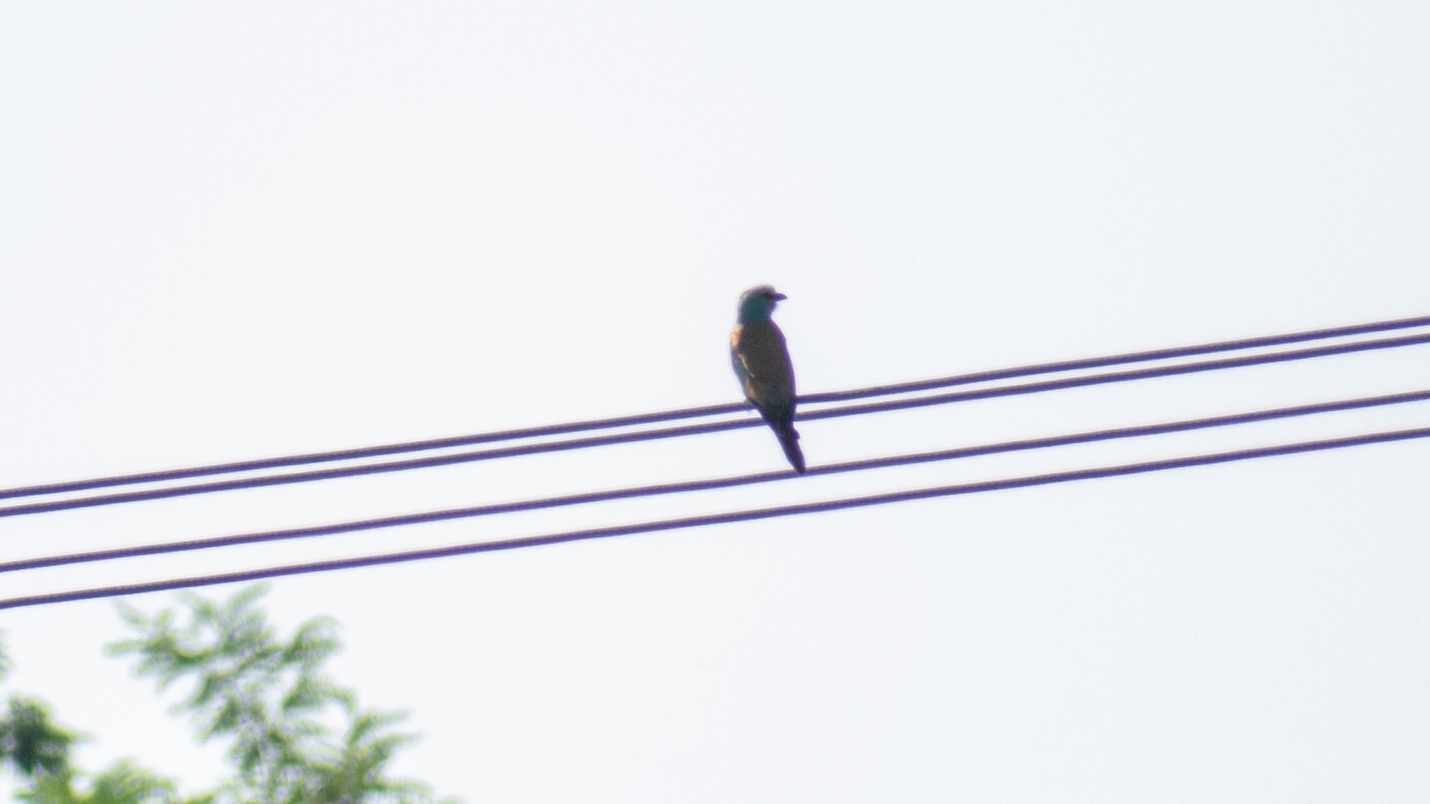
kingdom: Animalia
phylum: Chordata
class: Aves
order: Coraciiformes
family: Coraciidae
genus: Coracias
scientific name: Coracias garrulus
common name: European roller
